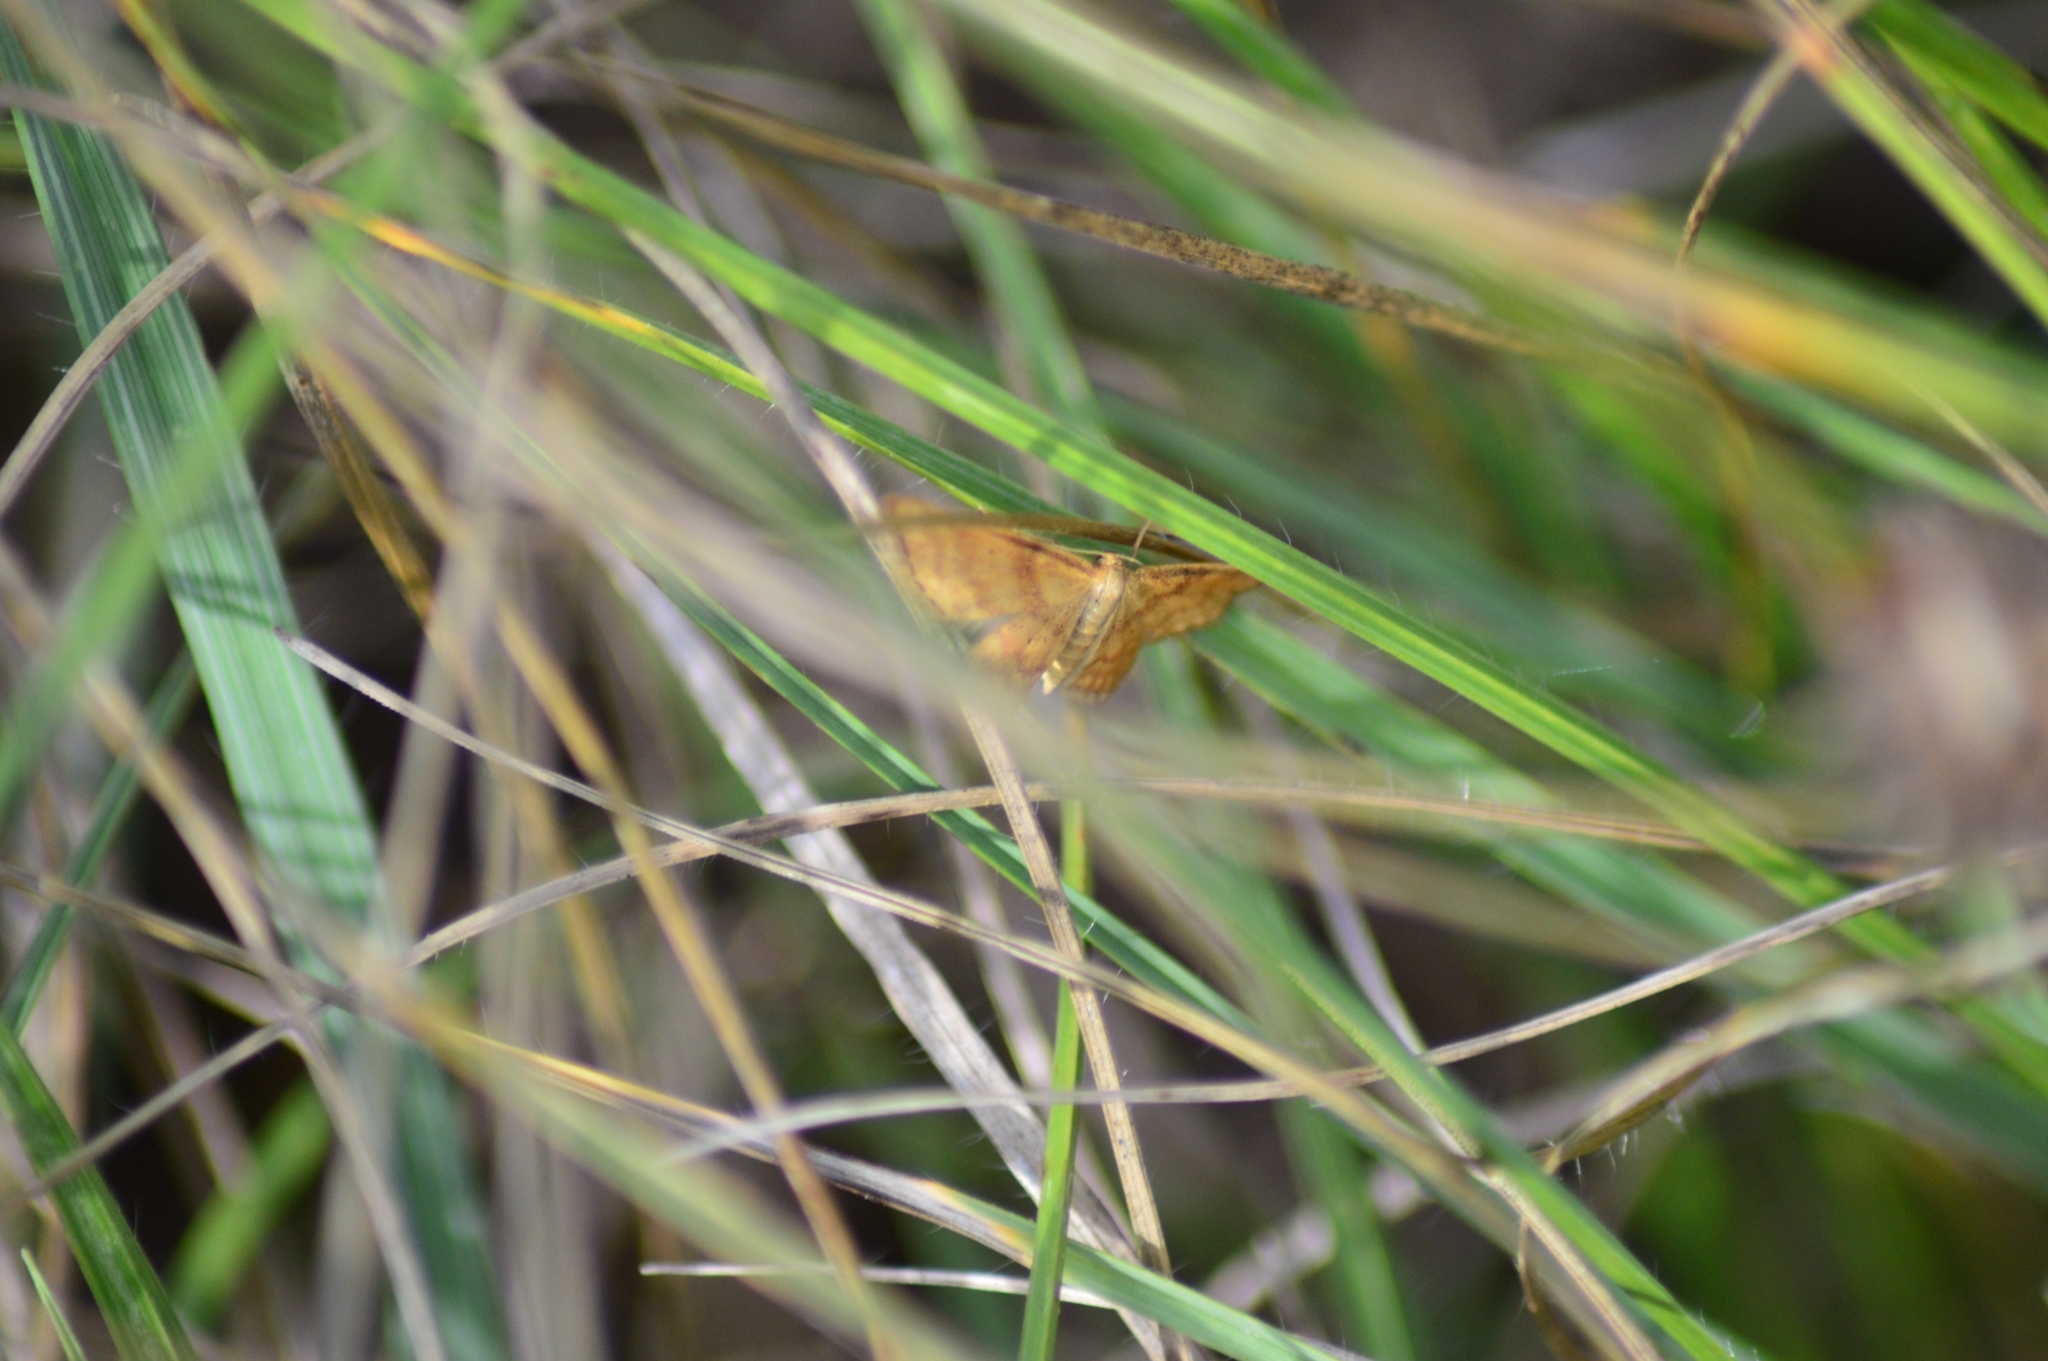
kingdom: Animalia
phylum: Arthropoda
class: Insecta
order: Lepidoptera
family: Geometridae
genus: Idaea
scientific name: Idaea serpentata
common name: Ochraceous wave
